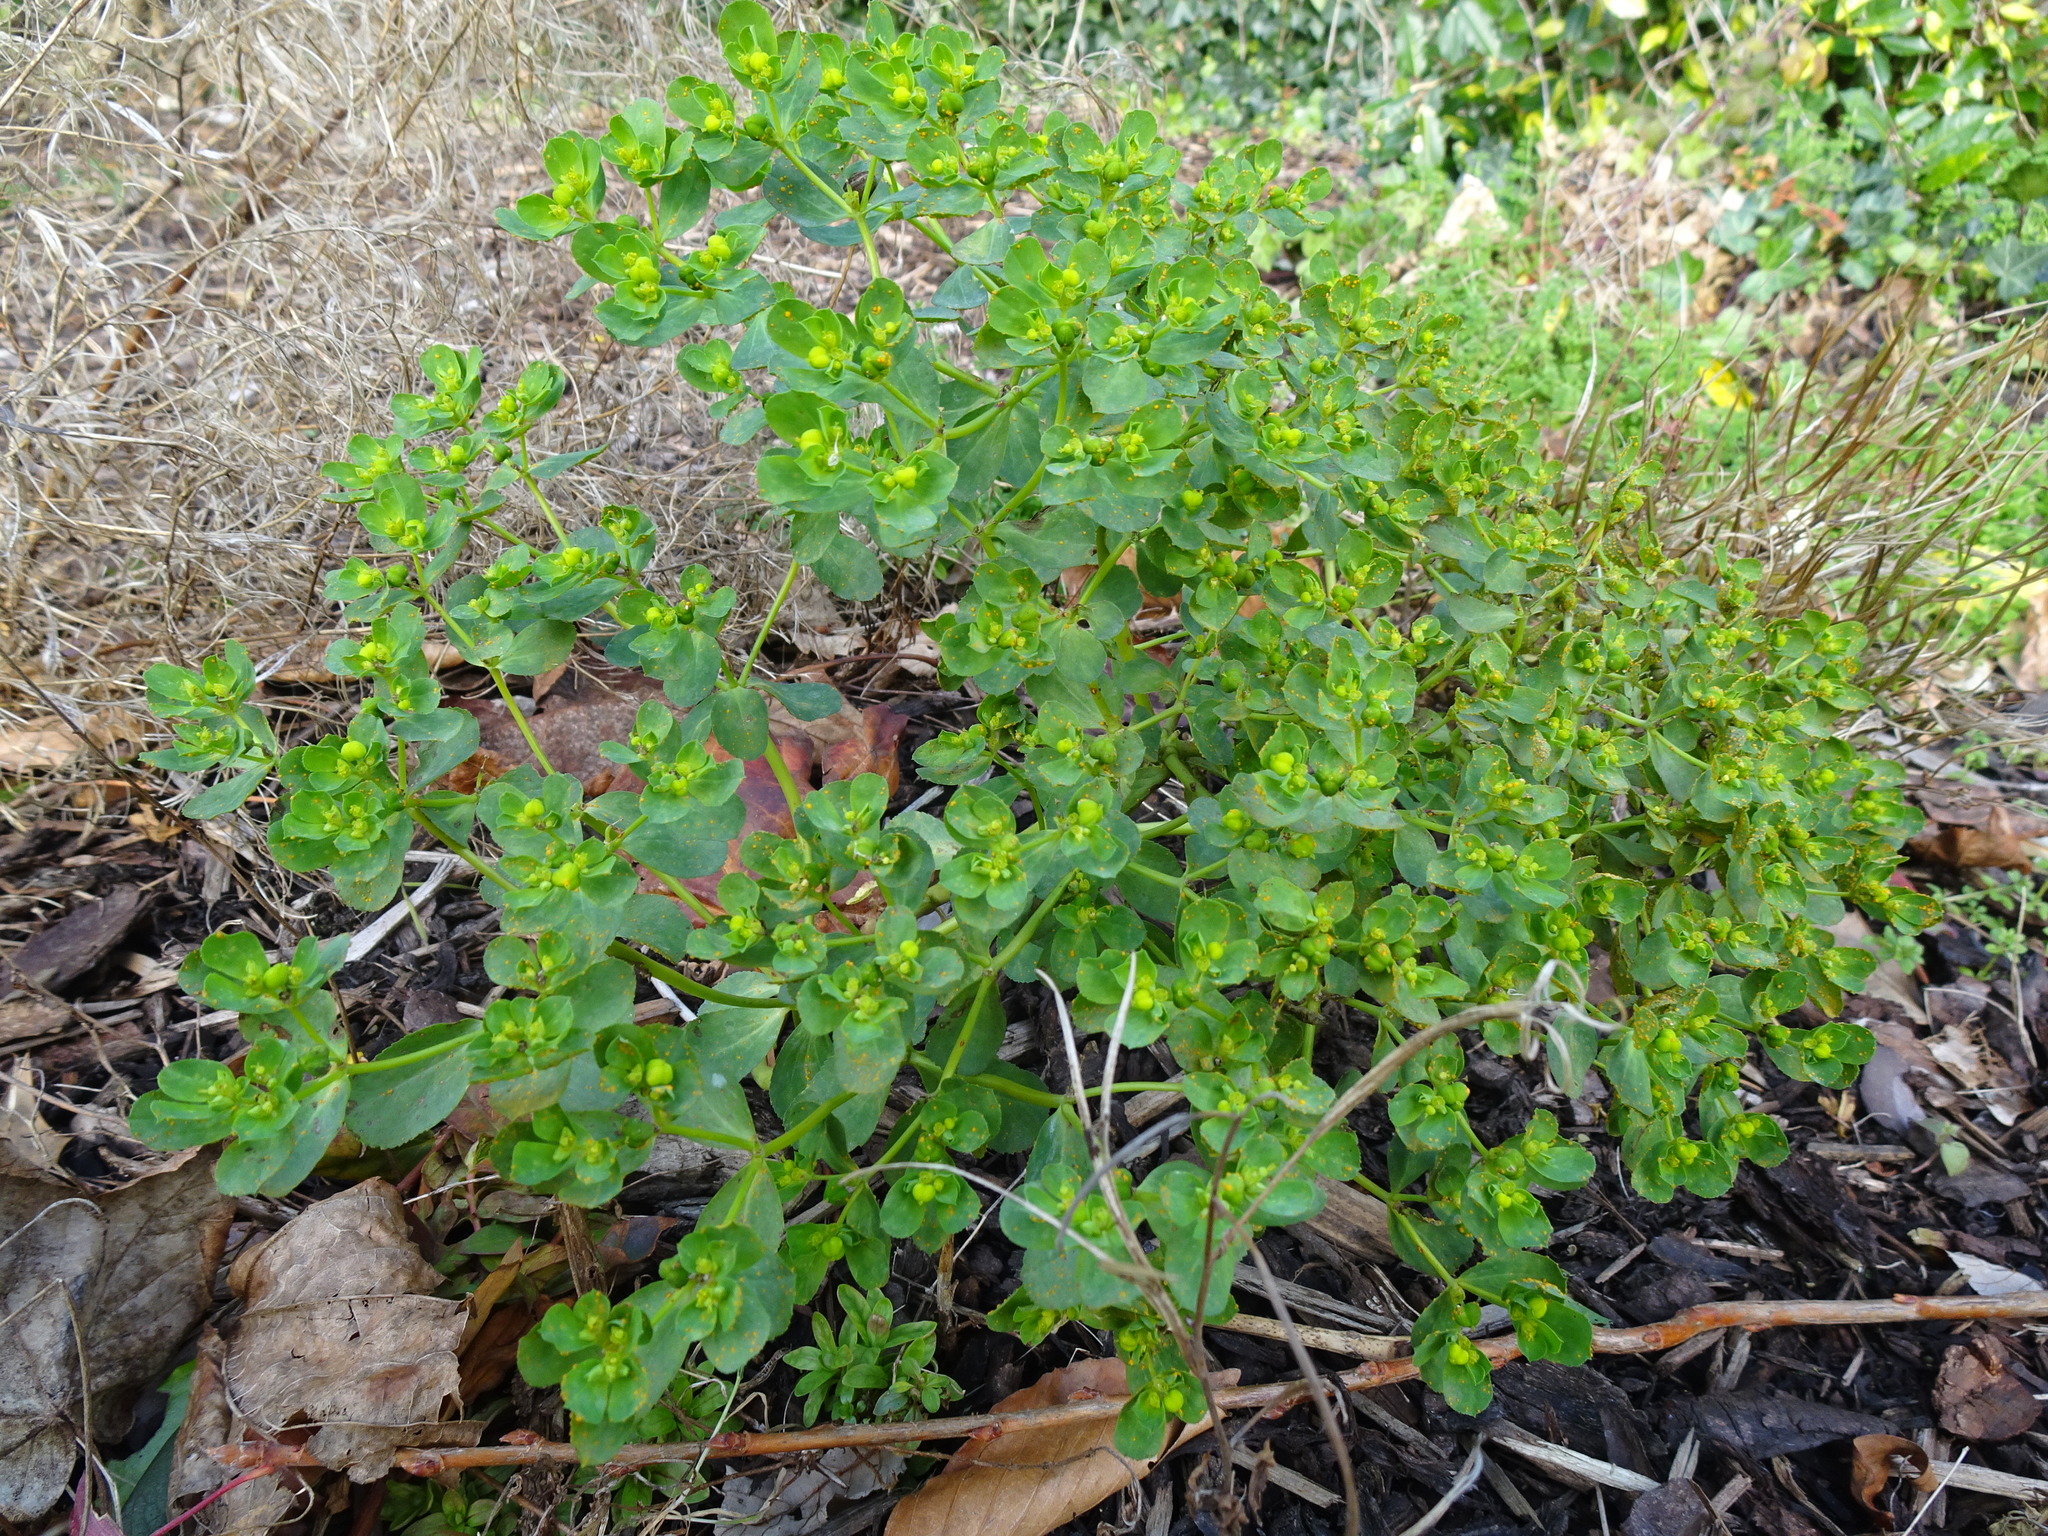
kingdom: Plantae
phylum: Tracheophyta
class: Magnoliopsida
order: Malpighiales
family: Euphorbiaceae
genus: Euphorbia
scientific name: Euphorbia helioscopia
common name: Sun spurge
